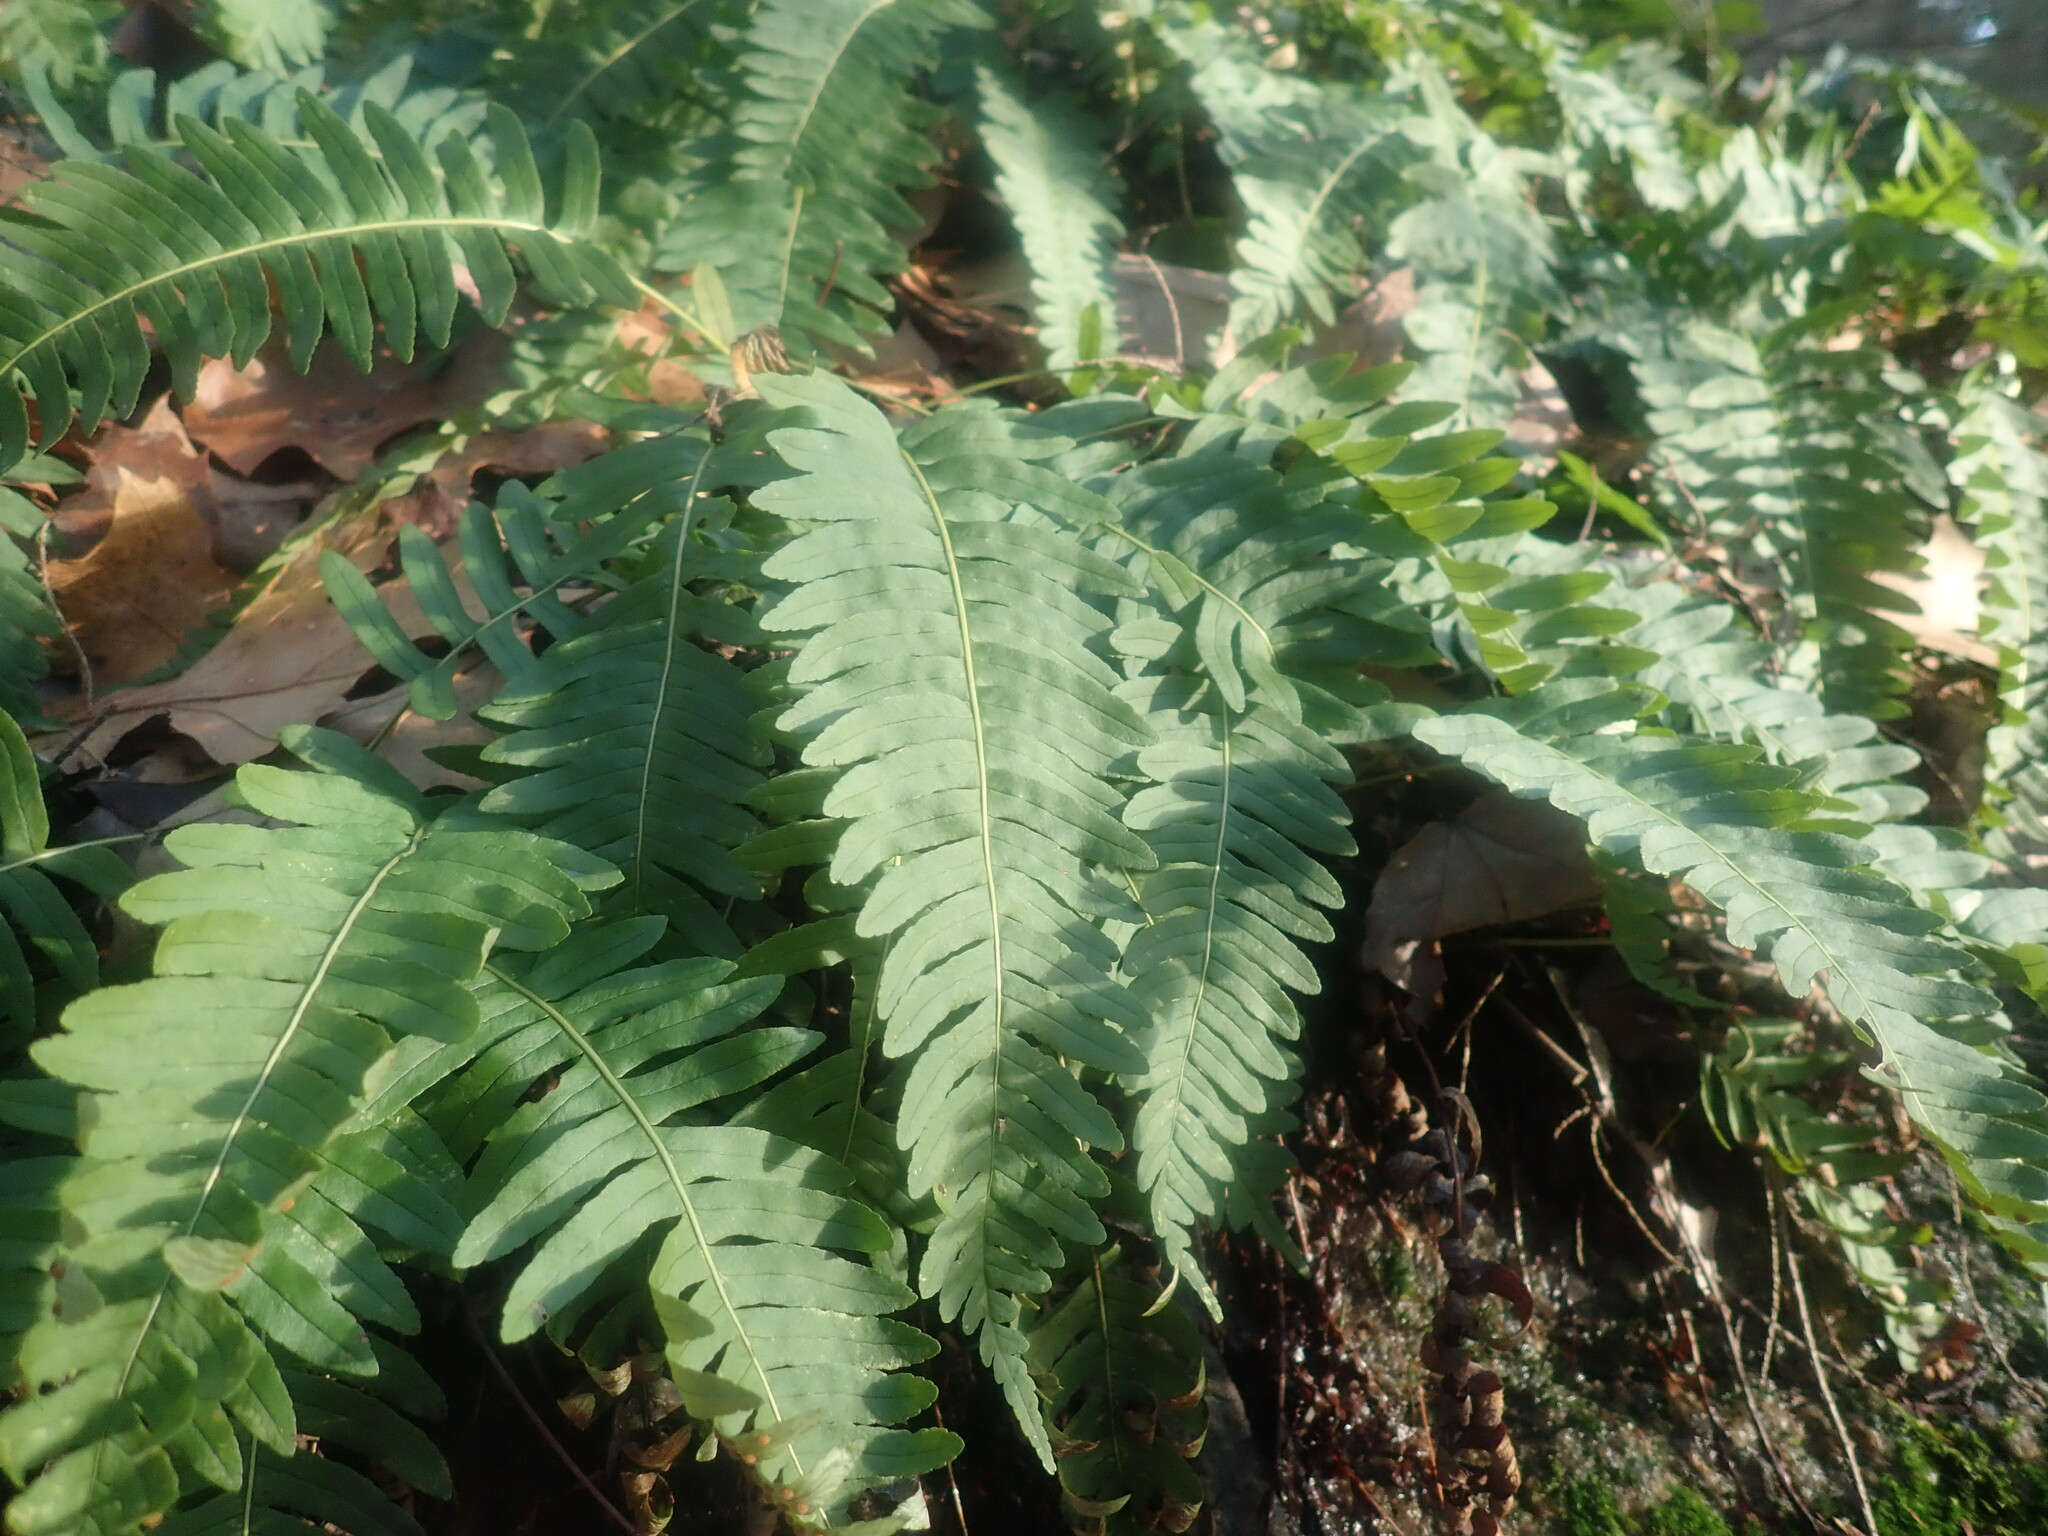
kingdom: Plantae
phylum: Tracheophyta
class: Polypodiopsida
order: Polypodiales
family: Polypodiaceae
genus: Polypodium
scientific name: Polypodium virginianum
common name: American wall fern
